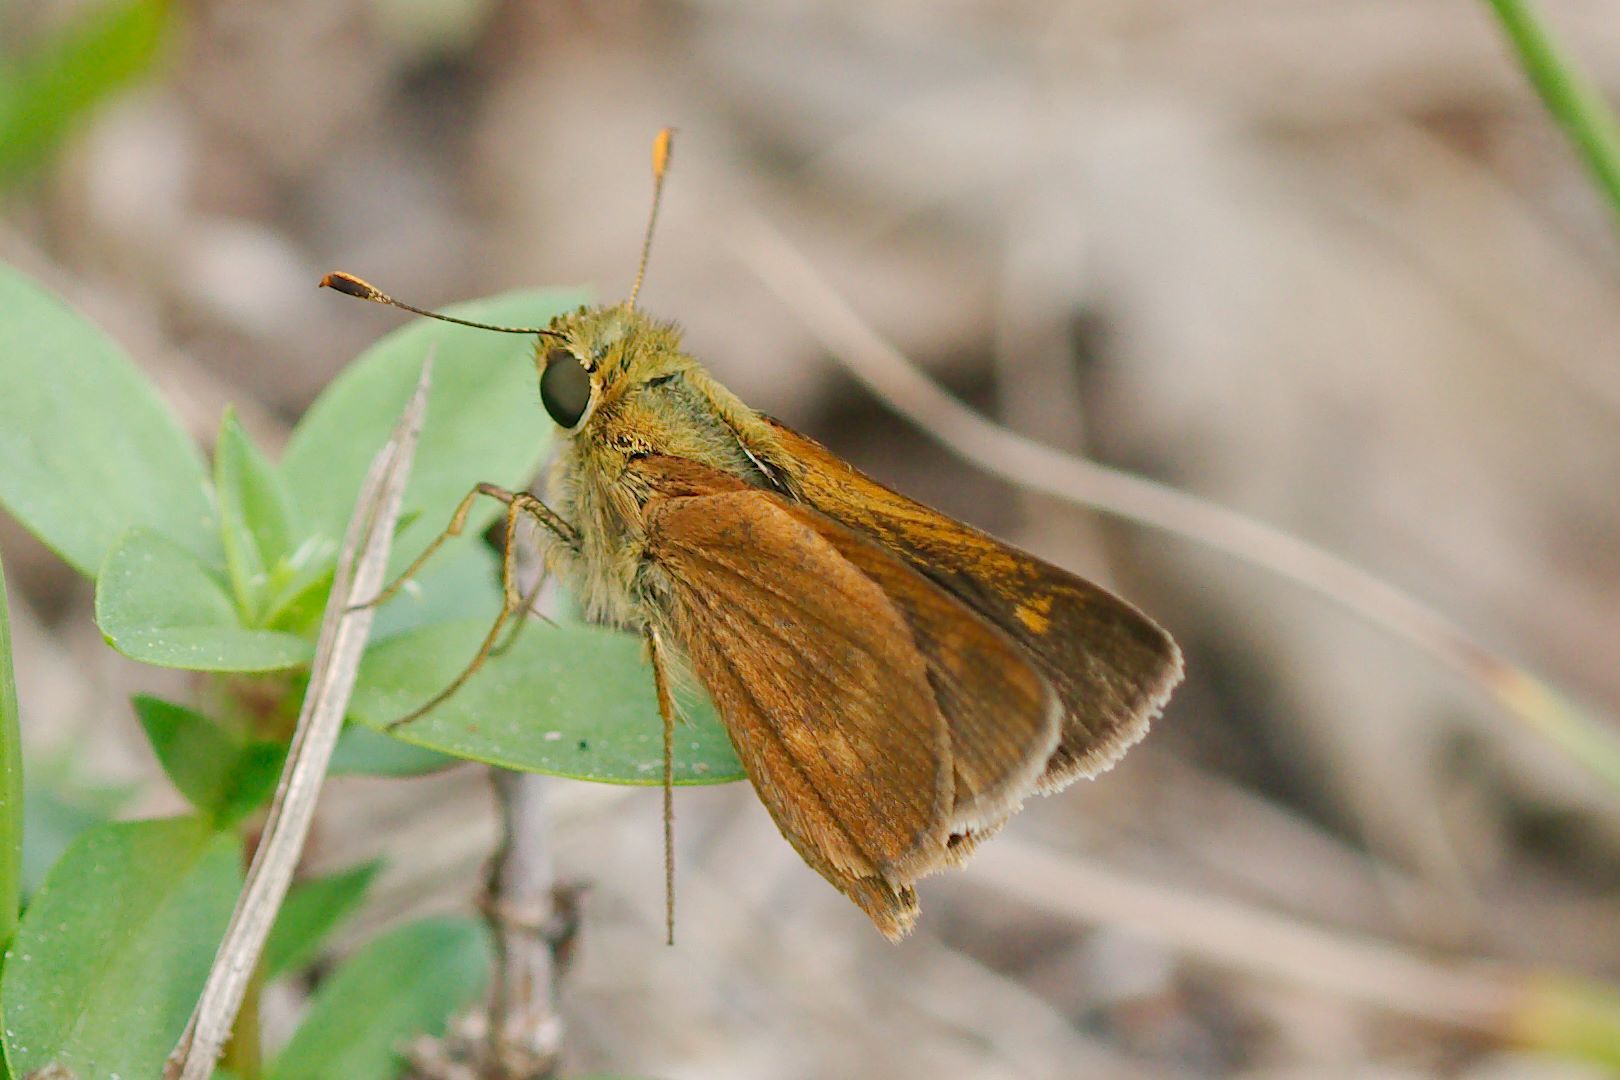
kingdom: Animalia
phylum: Arthropoda
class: Insecta
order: Lepidoptera
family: Hesperiidae
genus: Polites
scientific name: Polites otho
